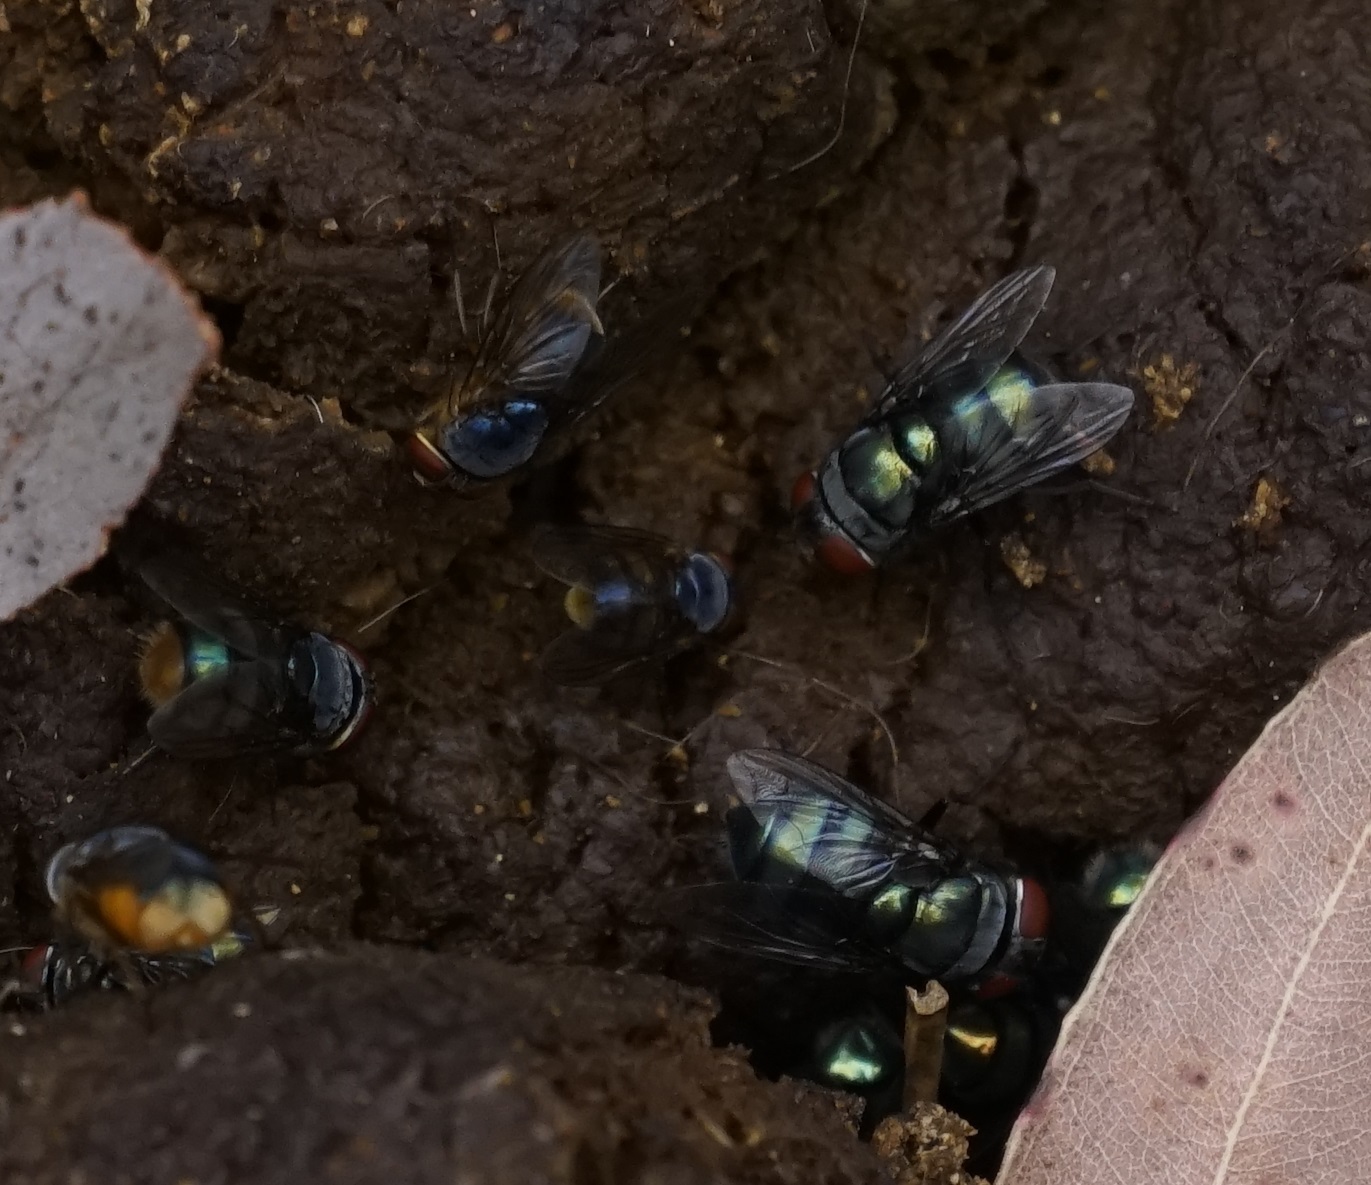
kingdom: Animalia
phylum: Arthropoda
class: Insecta
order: Diptera
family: Calliphoridae
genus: Chrysomya
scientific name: Chrysomya
